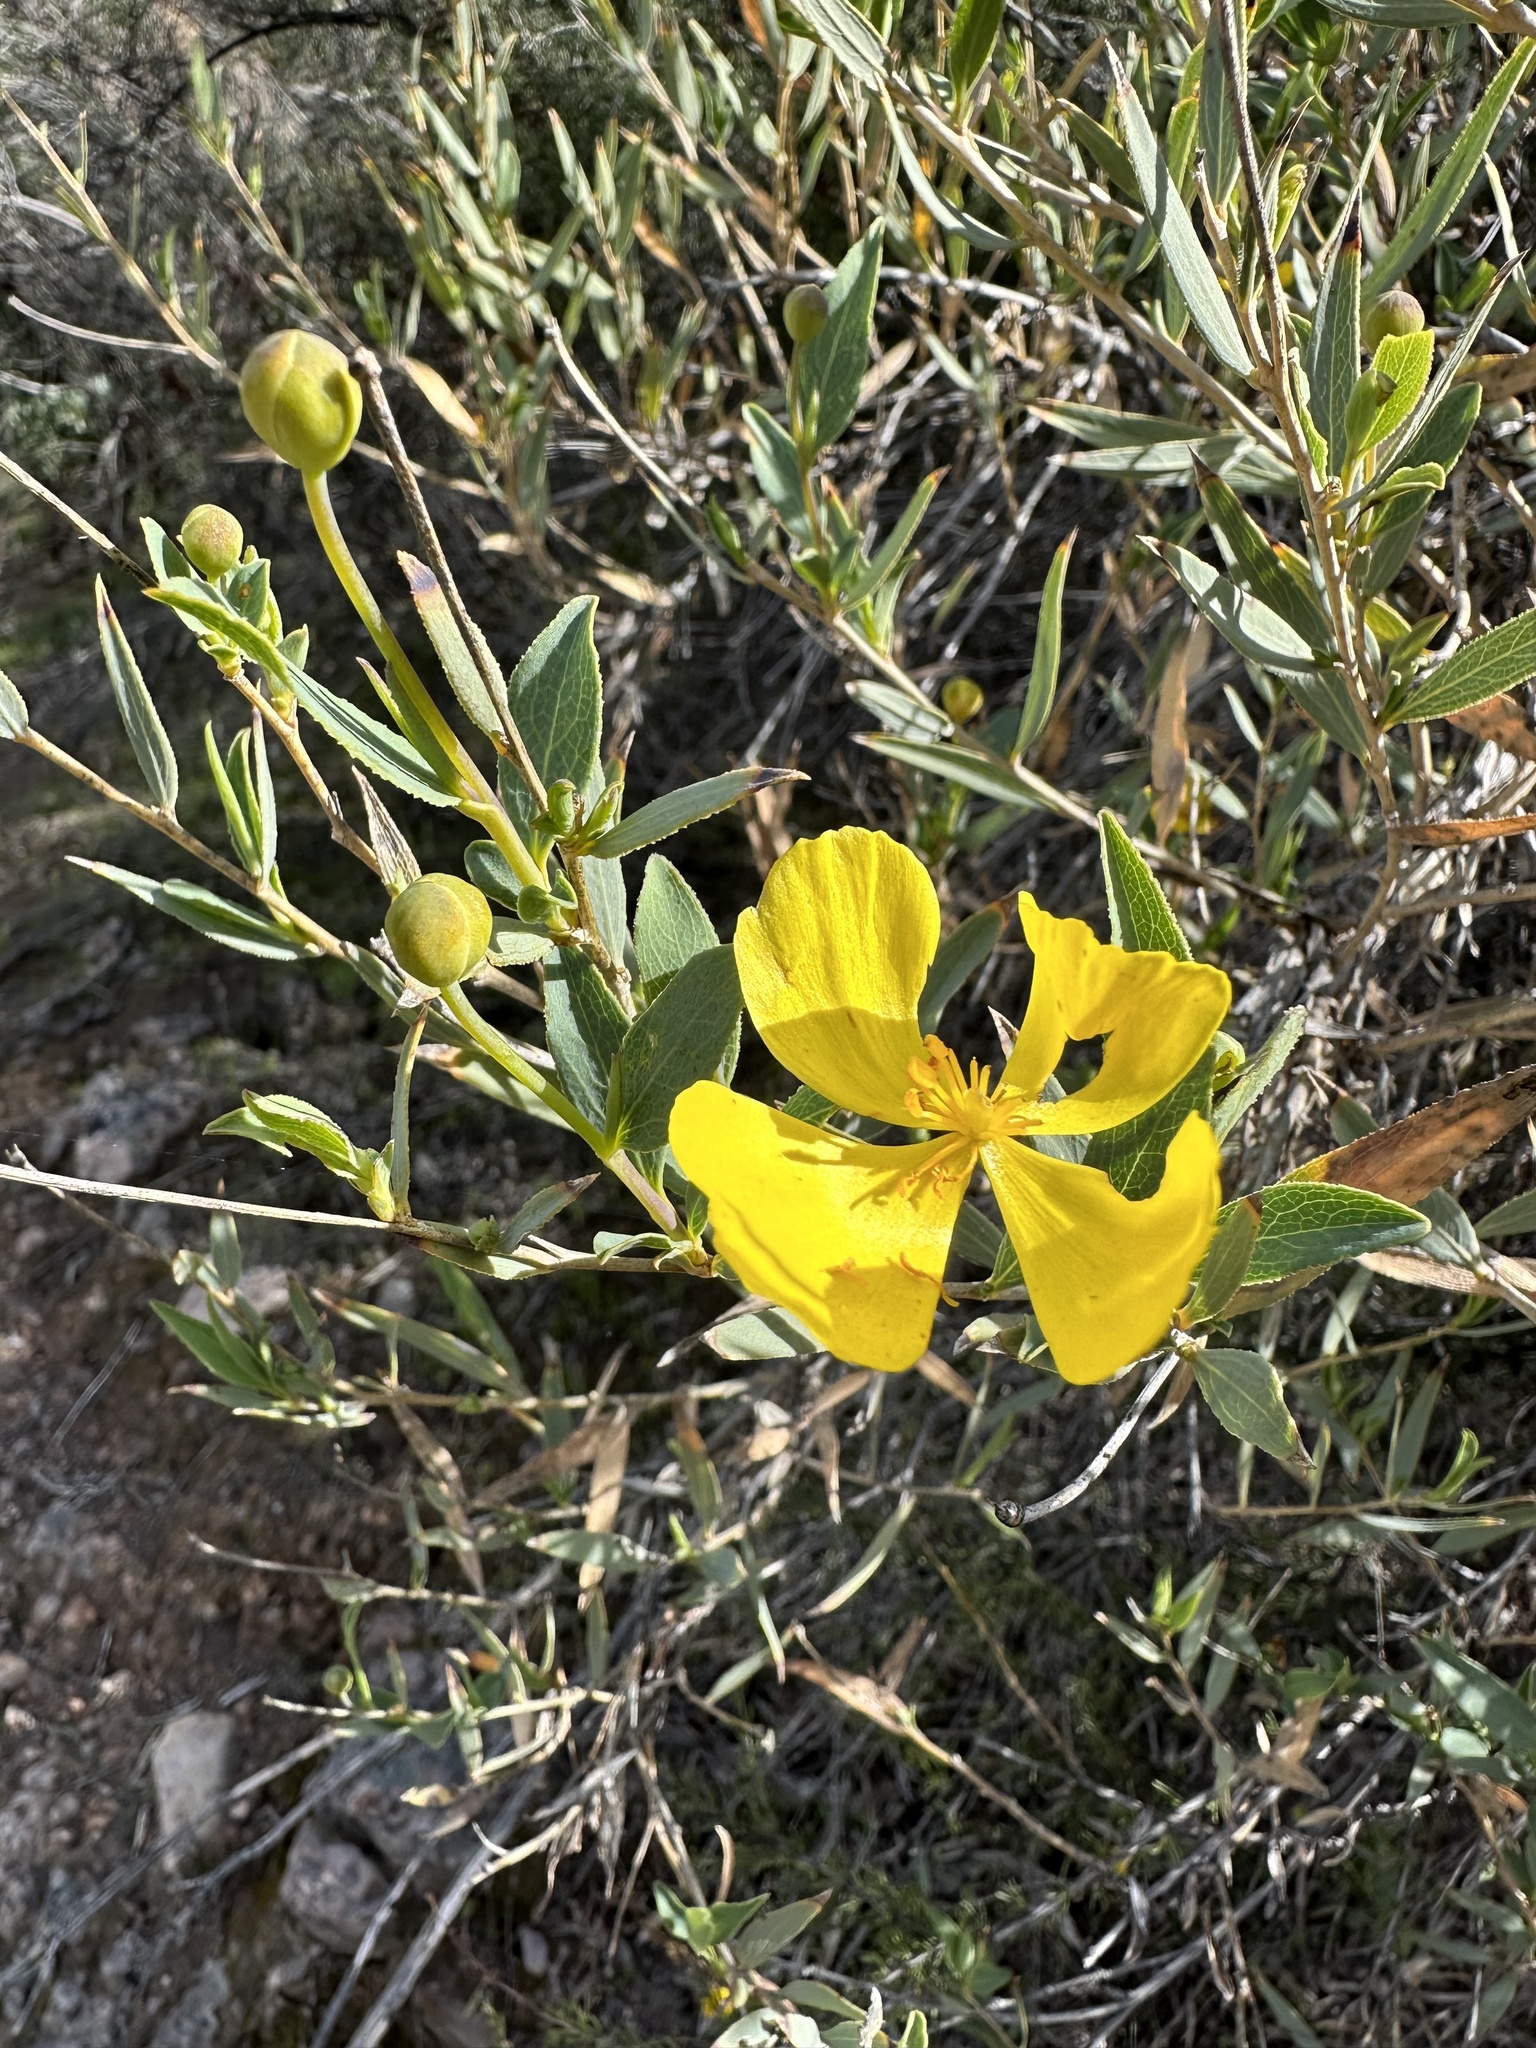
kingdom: Plantae
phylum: Tracheophyta
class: Magnoliopsida
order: Ranunculales
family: Papaveraceae
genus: Dendromecon
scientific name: Dendromecon rigida
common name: Tree poppy
